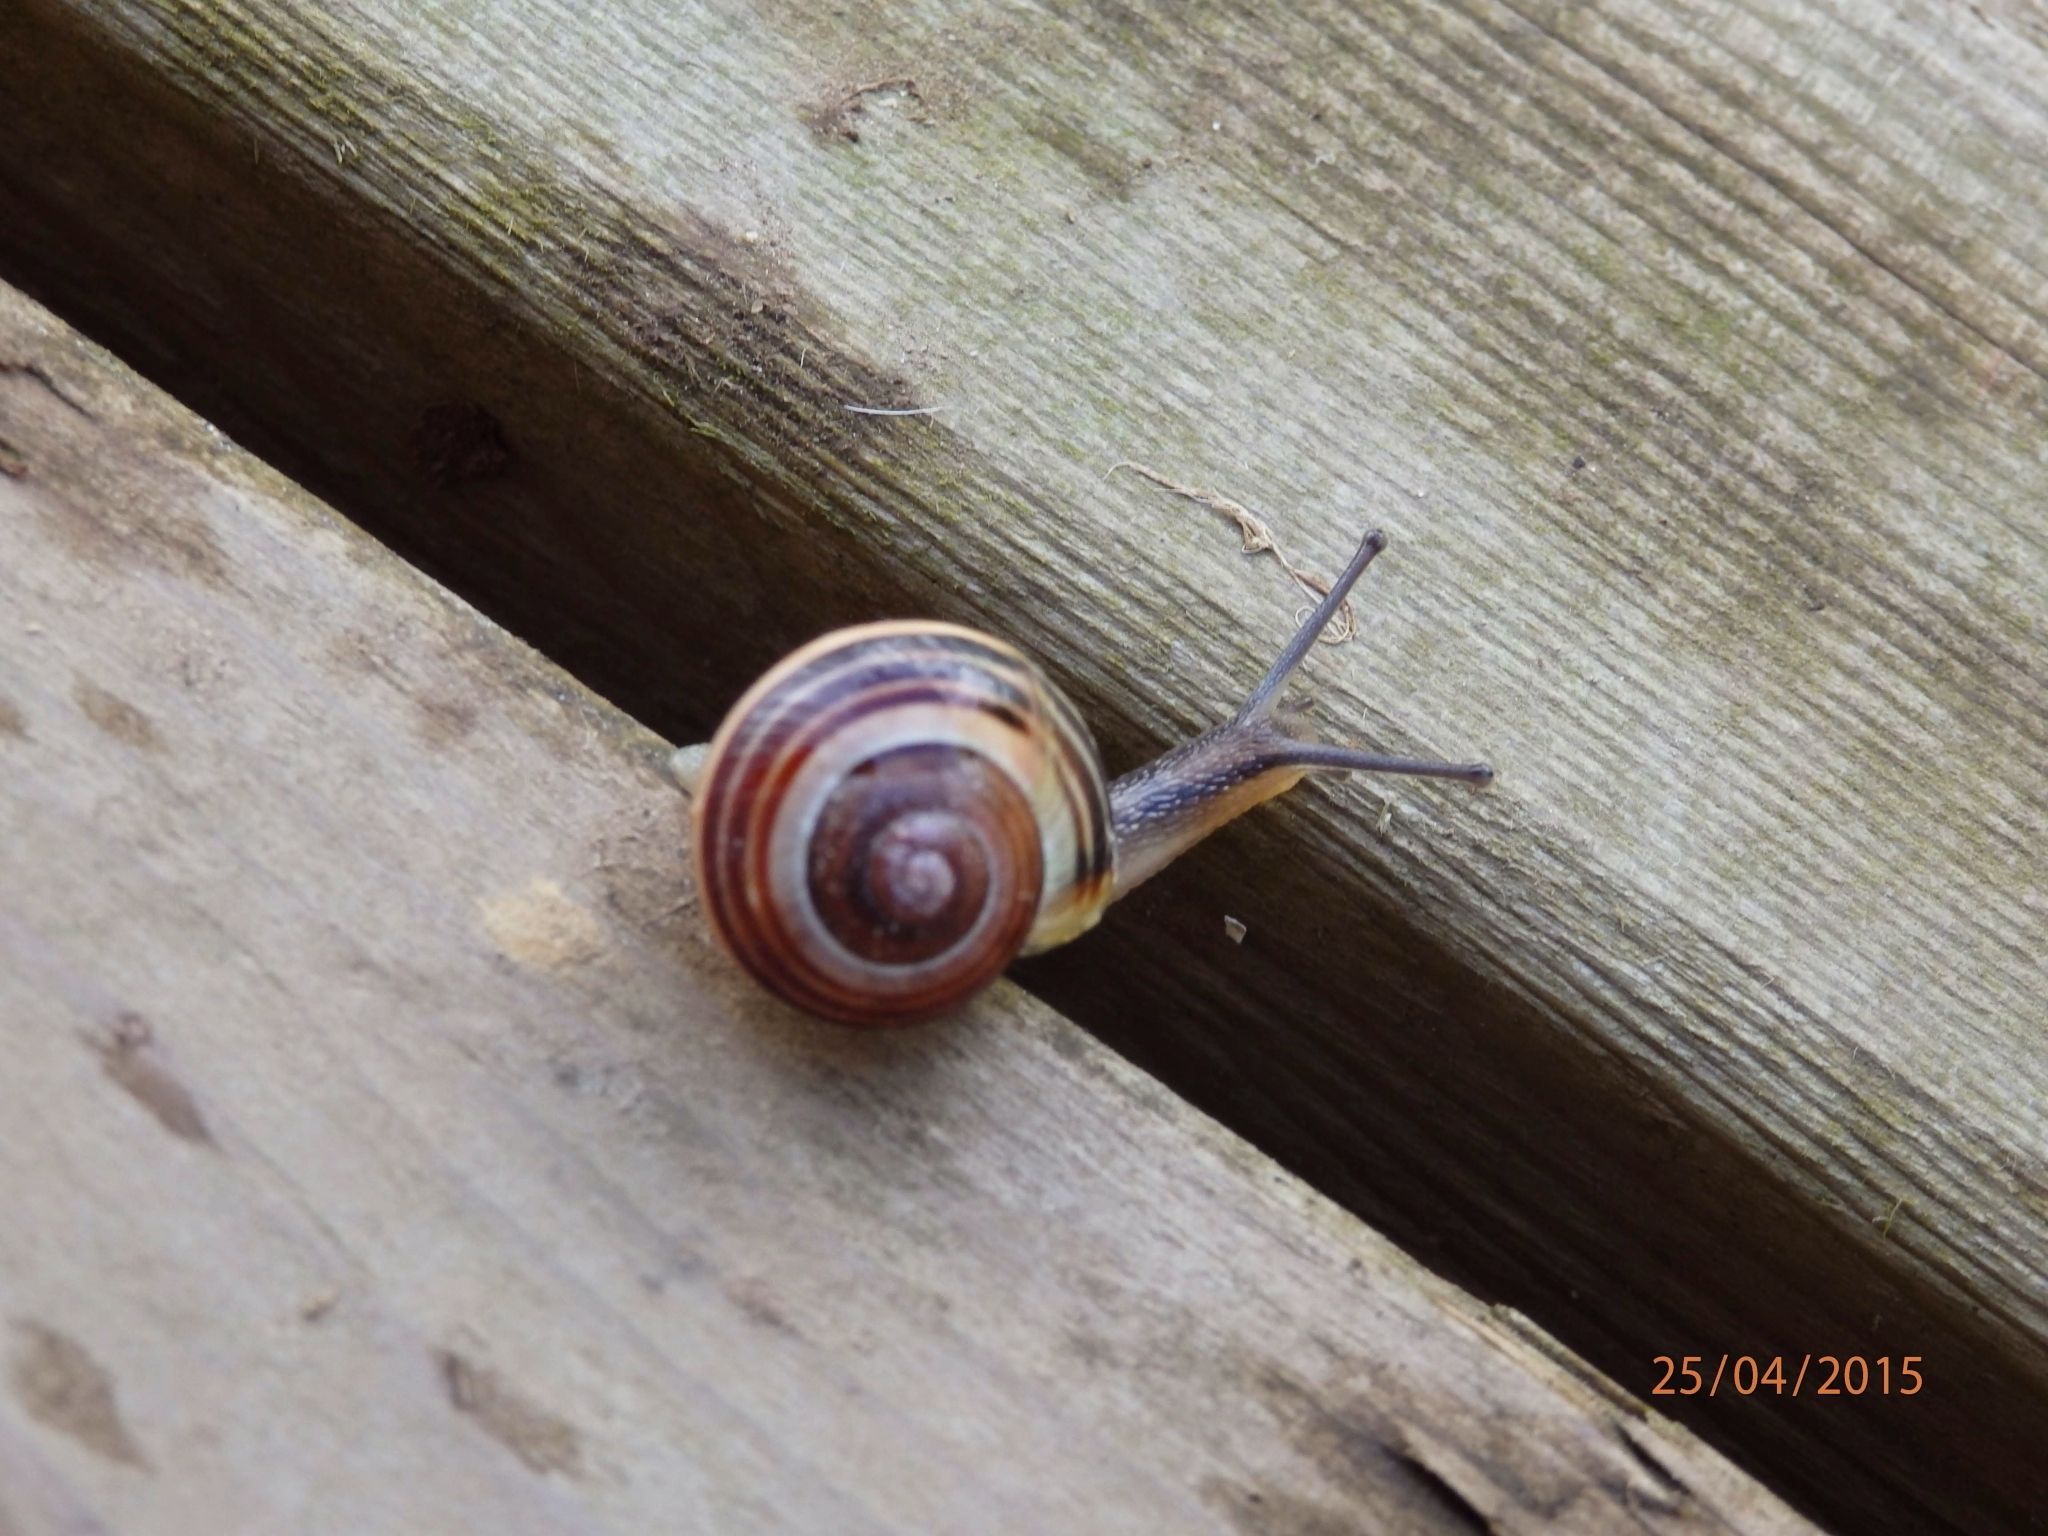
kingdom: Animalia
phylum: Mollusca
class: Gastropoda
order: Stylommatophora
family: Helicidae
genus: Cepaea
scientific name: Cepaea nemoralis
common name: Grovesnail
